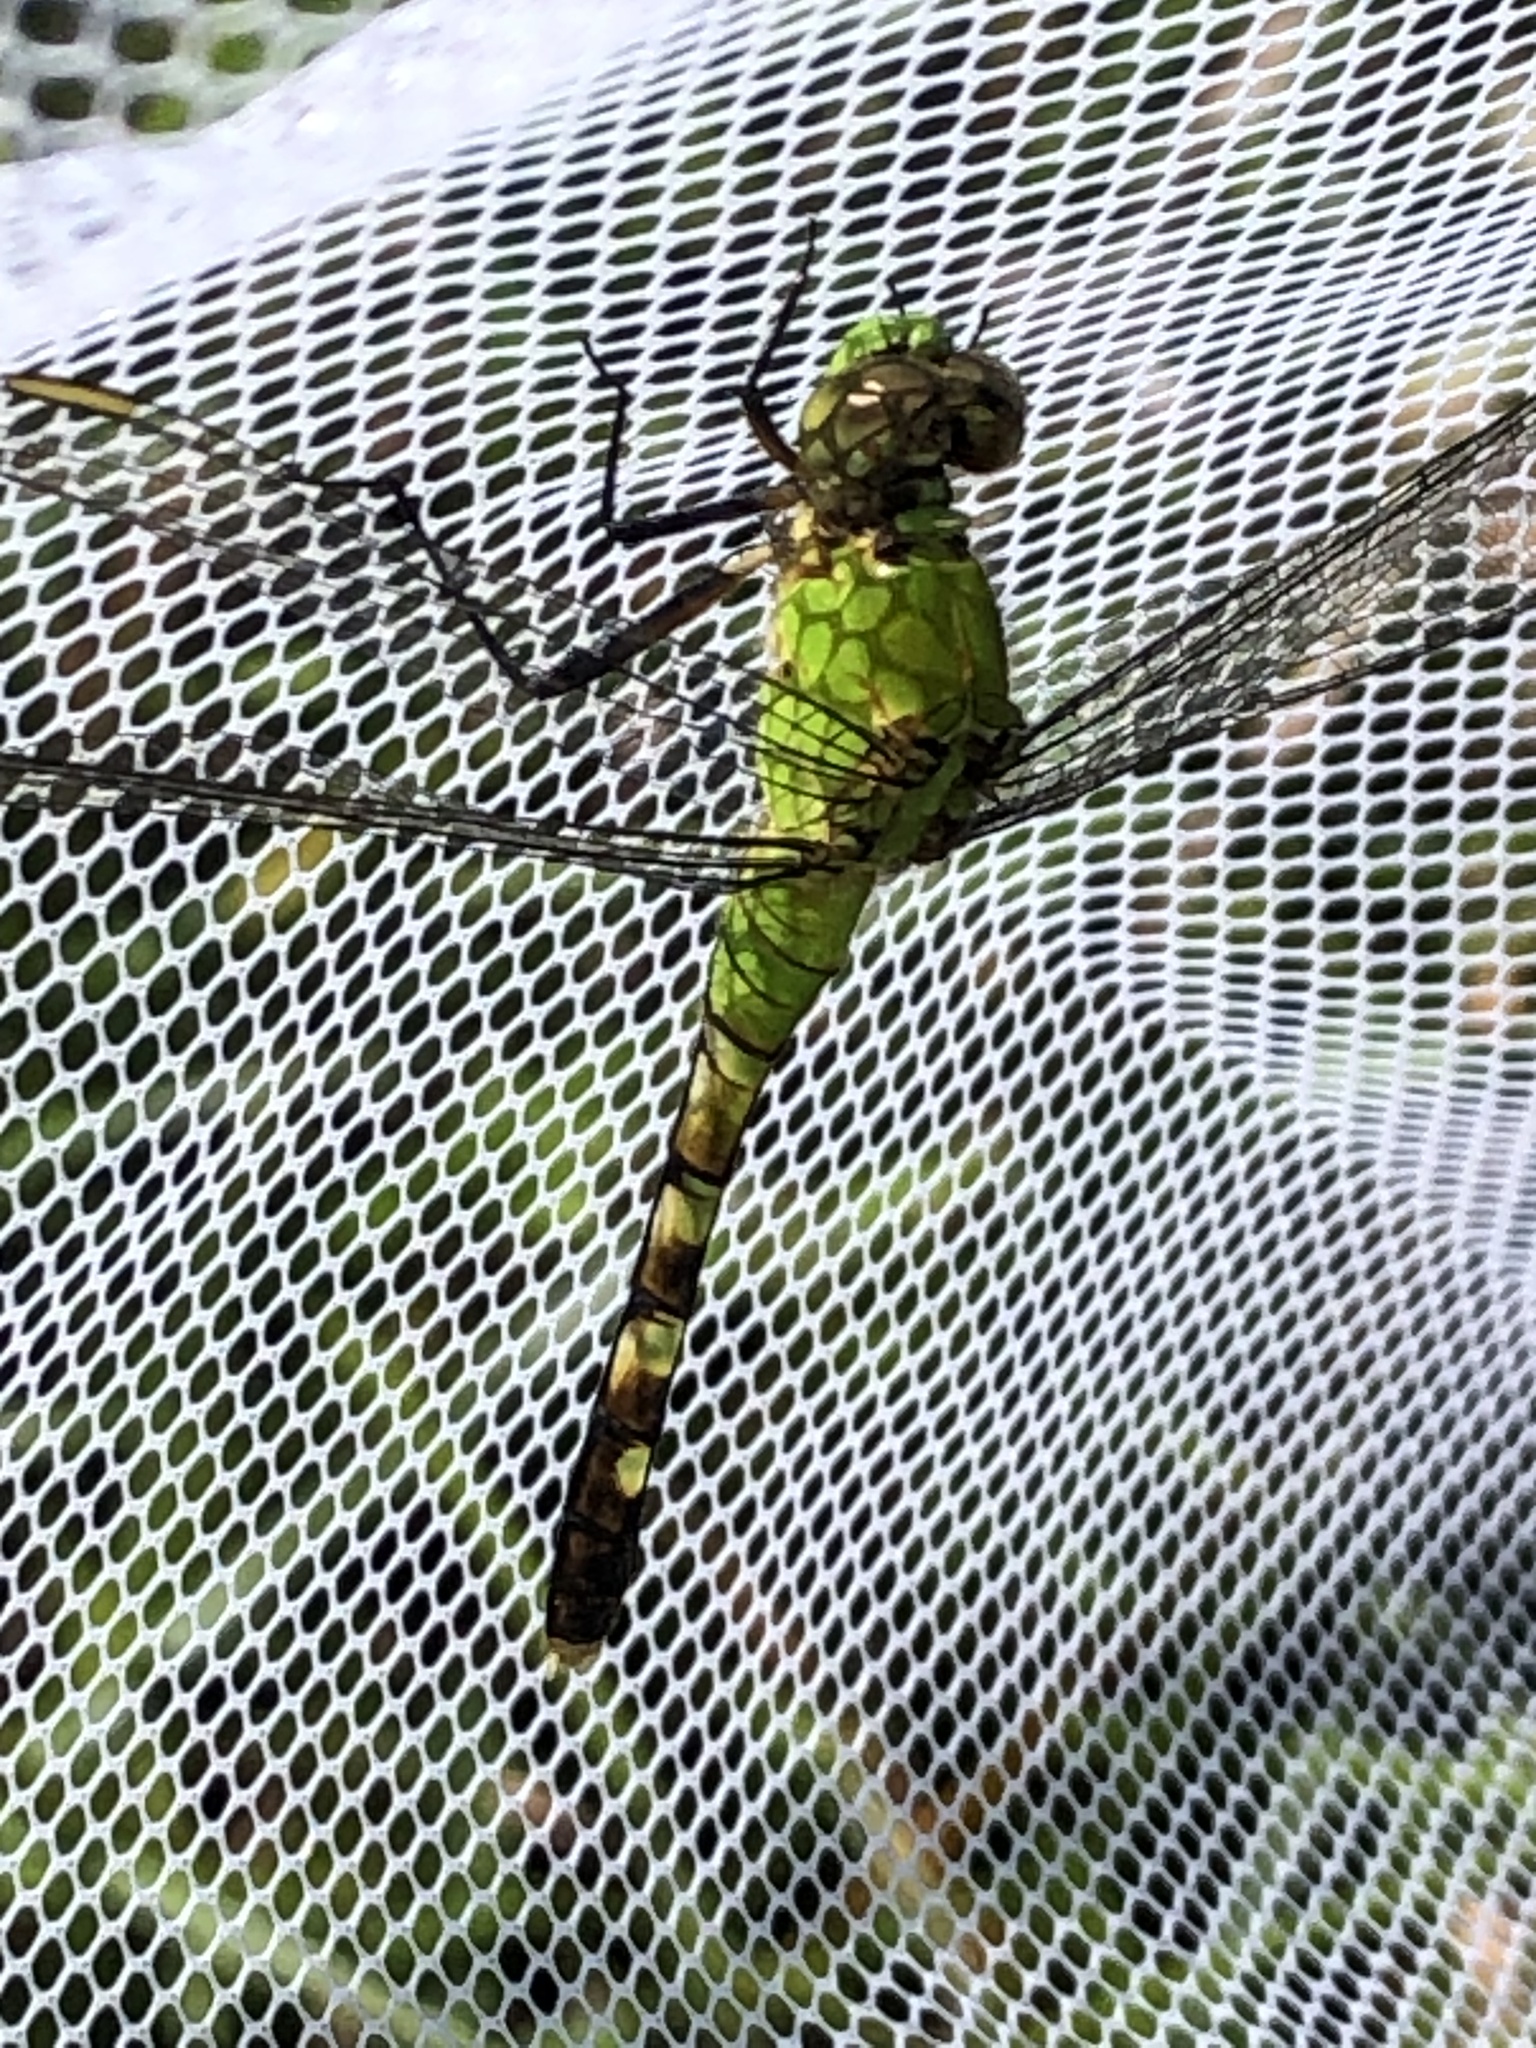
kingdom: Animalia
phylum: Arthropoda
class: Insecta
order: Odonata
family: Libellulidae
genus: Erythemis
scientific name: Erythemis simplicicollis
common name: Eastern pondhawk
